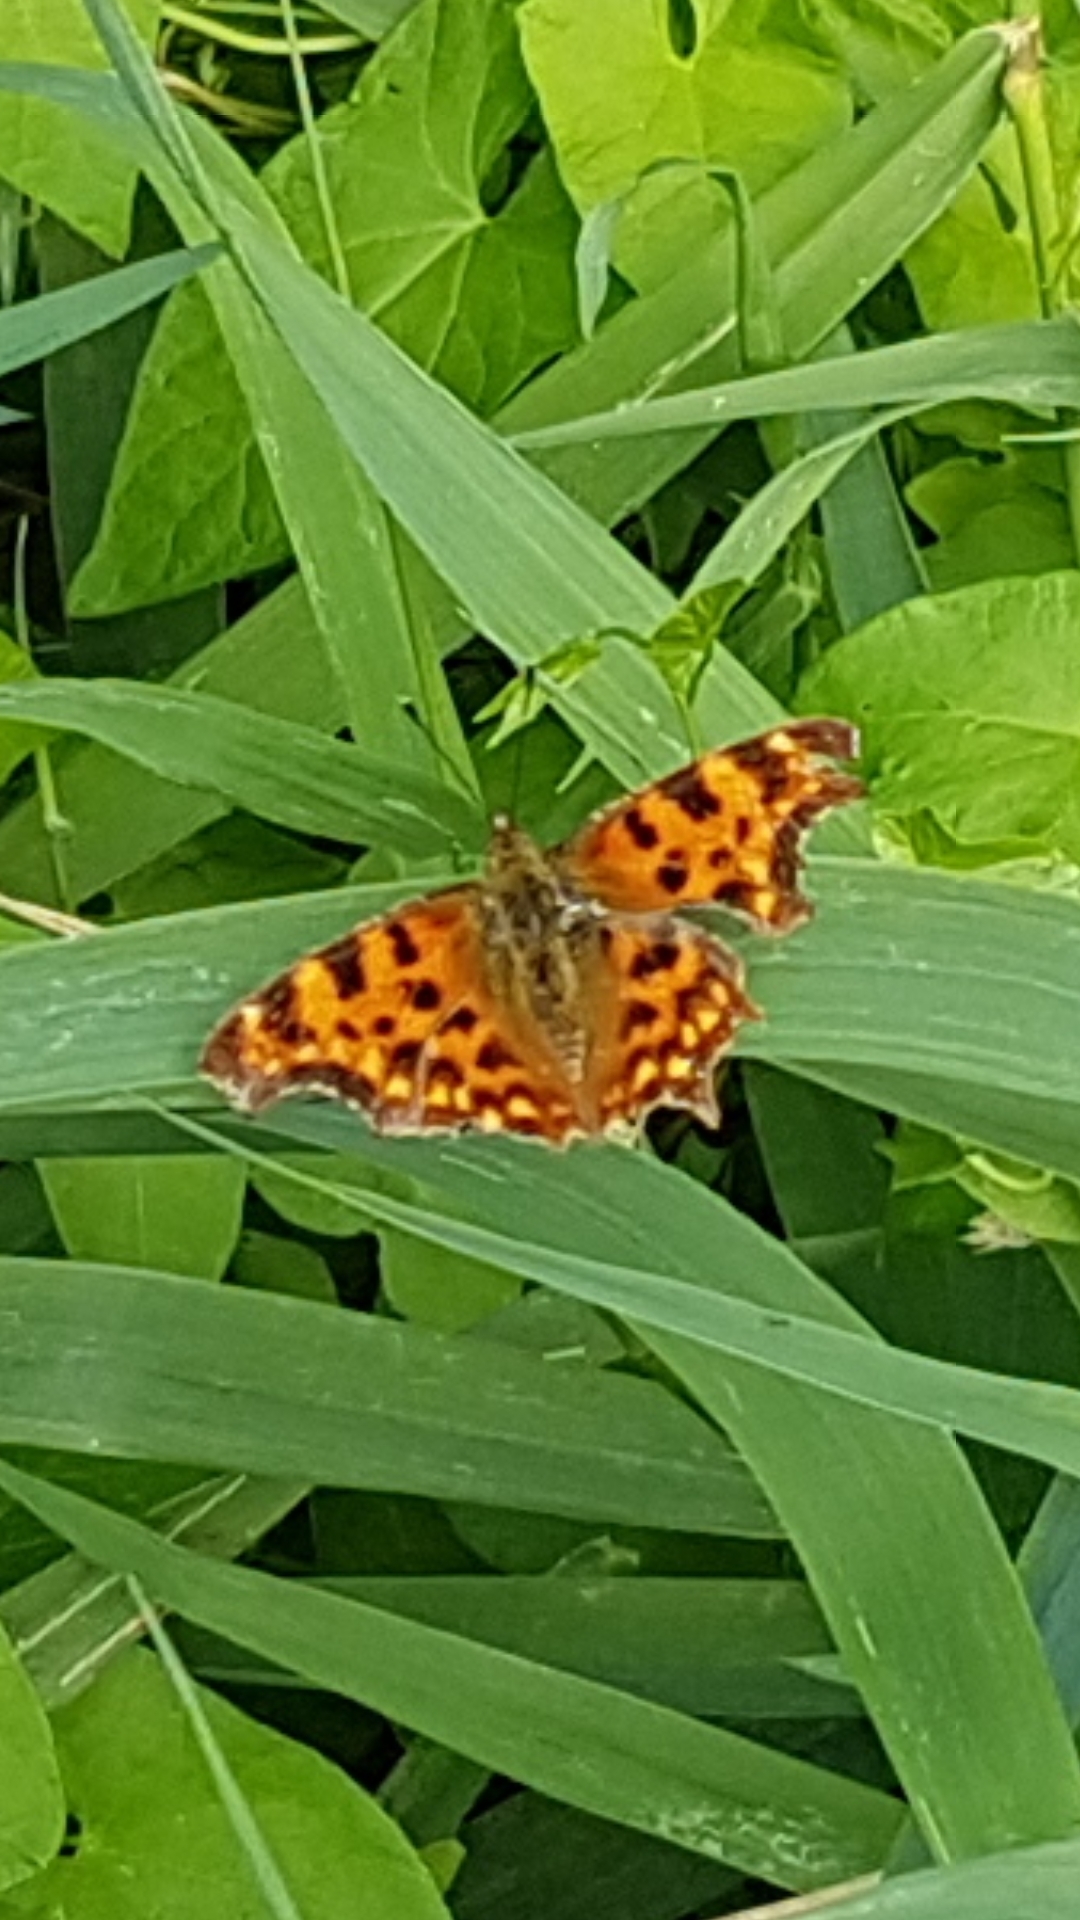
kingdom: Animalia
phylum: Arthropoda
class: Insecta
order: Lepidoptera
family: Nymphalidae
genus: Polygonia
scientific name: Polygonia c-album
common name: Comma
